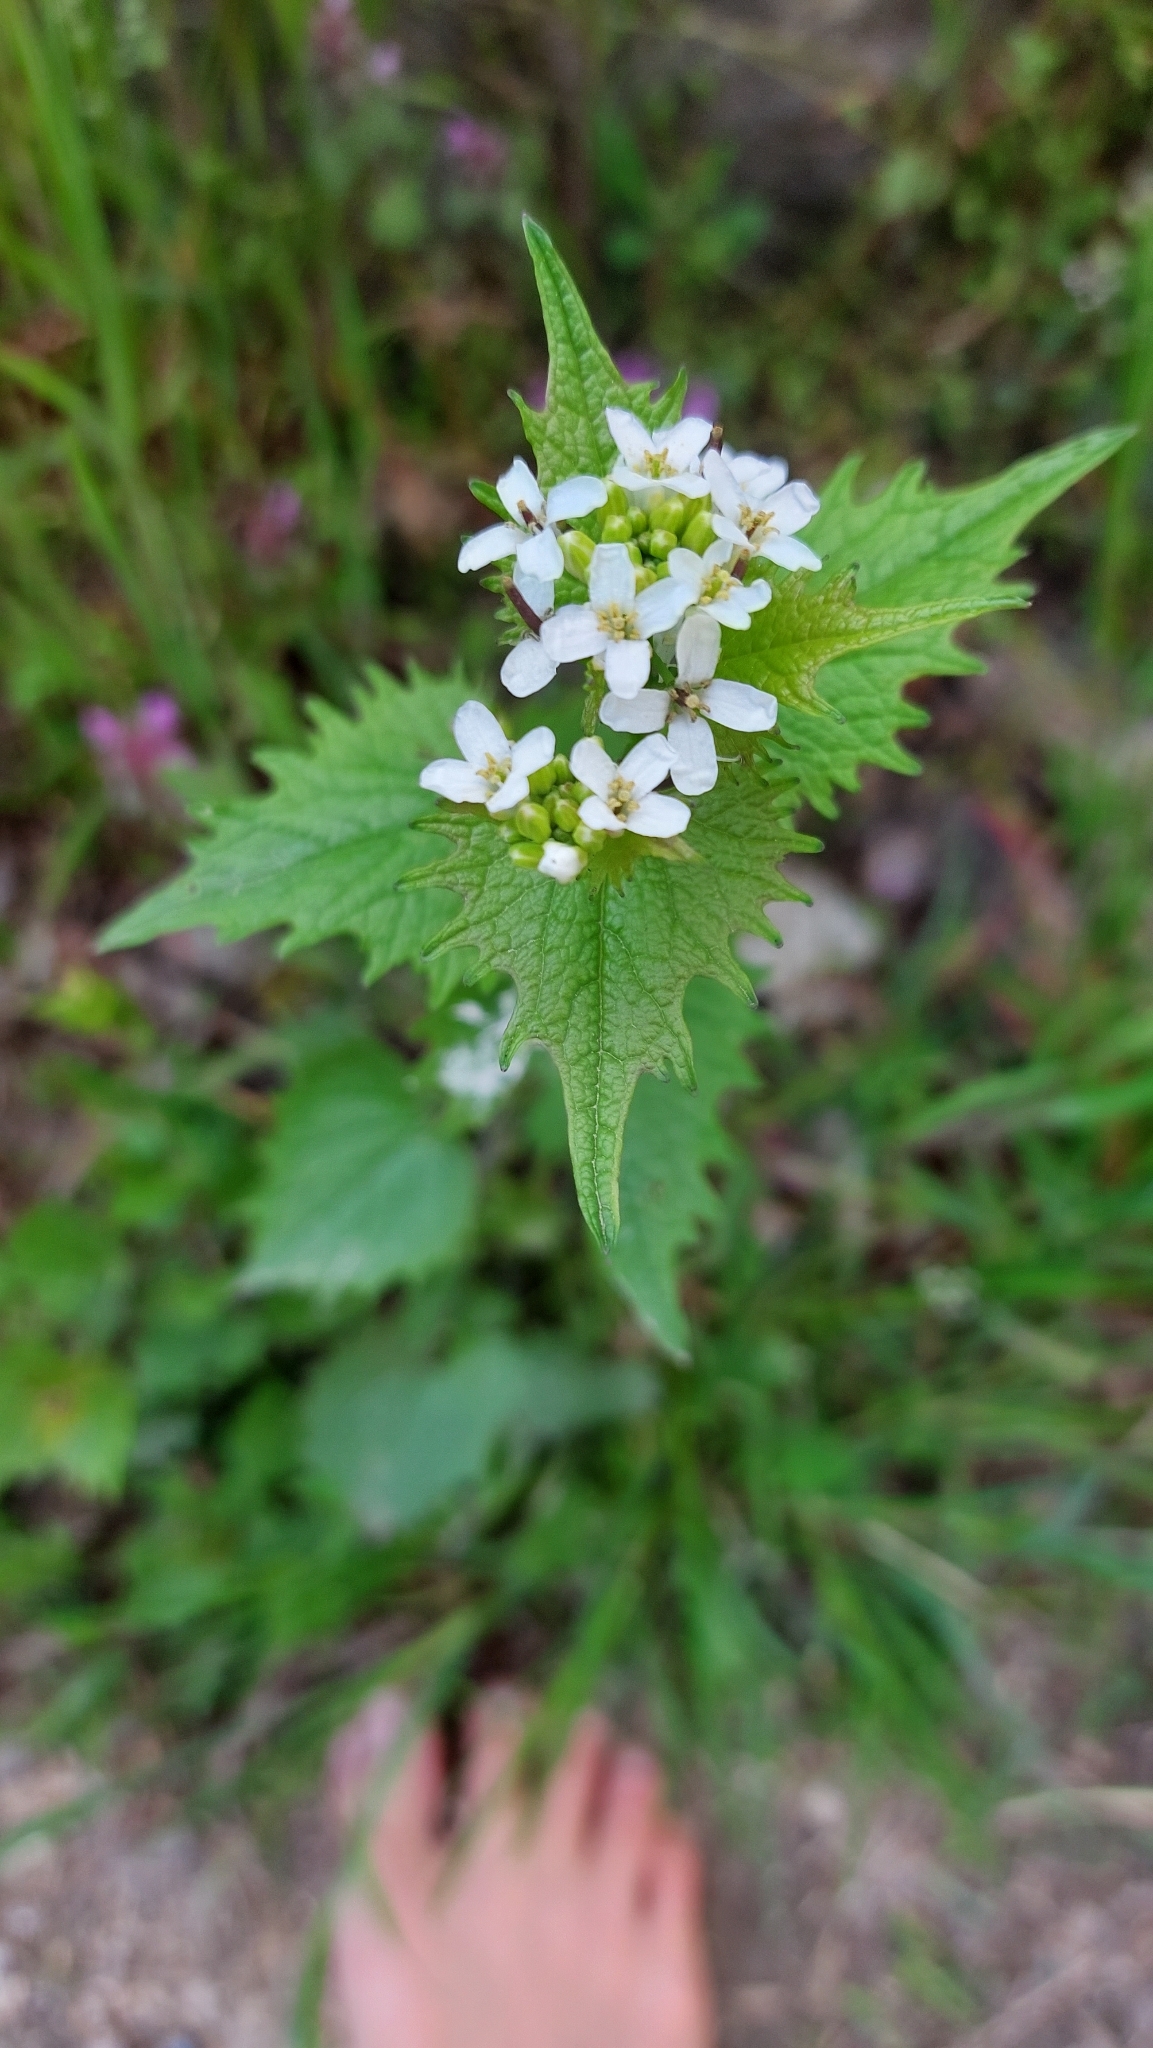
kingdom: Plantae
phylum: Tracheophyta
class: Magnoliopsida
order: Brassicales
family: Brassicaceae
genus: Alliaria
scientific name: Alliaria petiolata
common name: Garlic mustard
